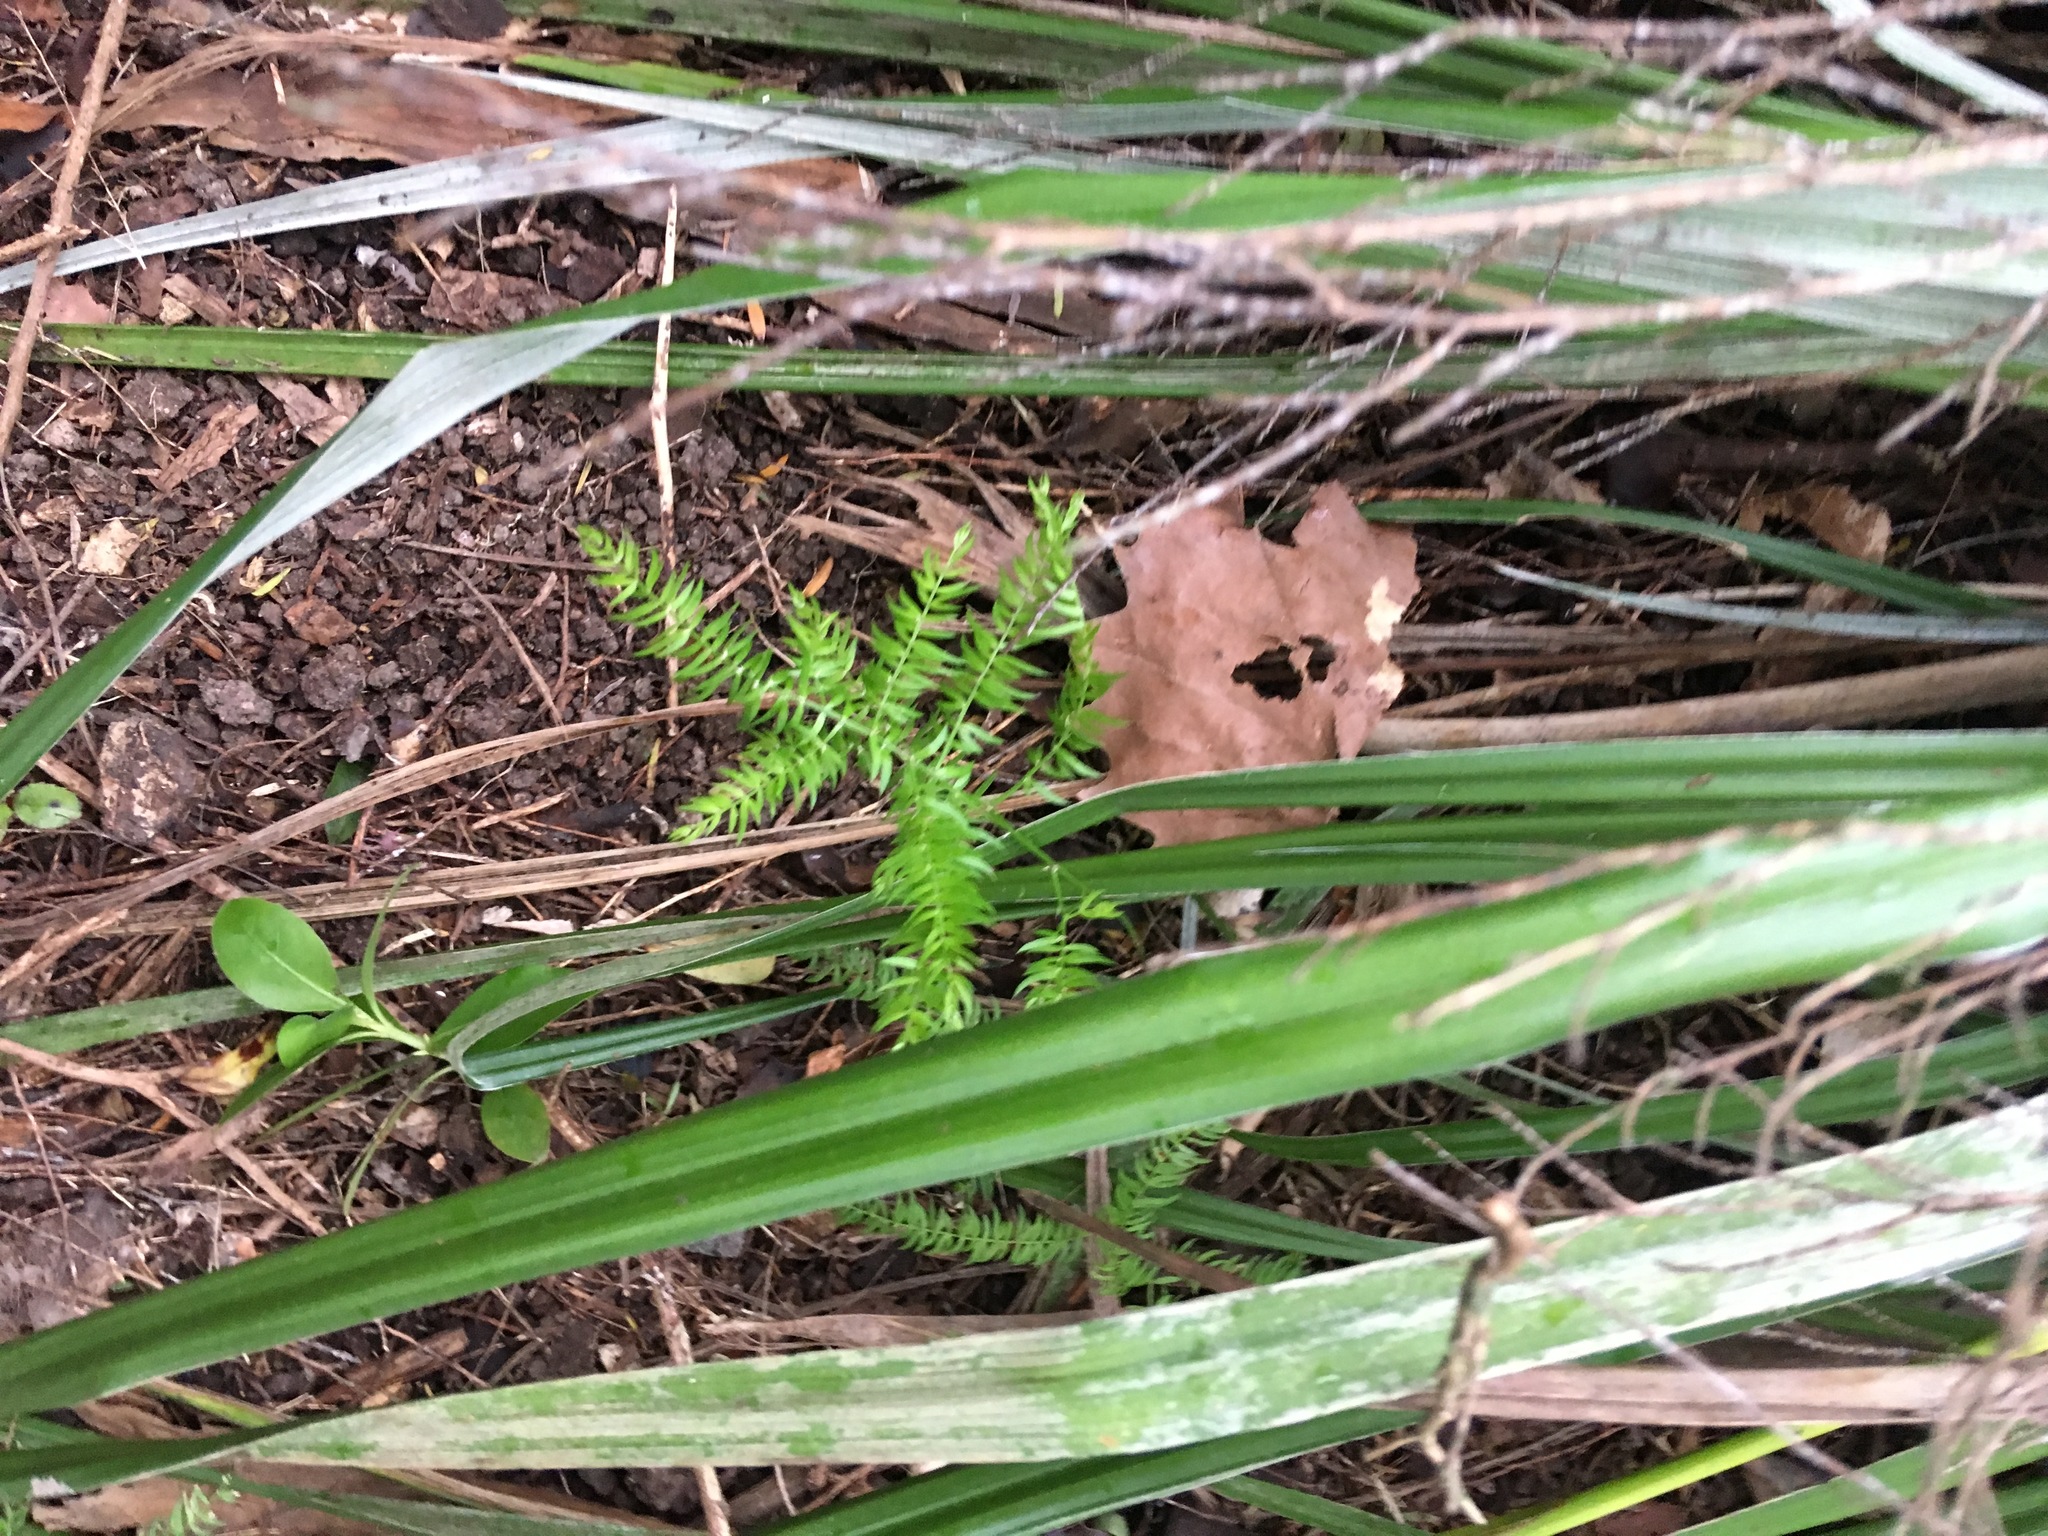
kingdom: Plantae
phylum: Tracheophyta
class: Liliopsida
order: Asparagales
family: Asparagaceae
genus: Asparagus
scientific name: Asparagus scandens
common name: Asparagus-fern
